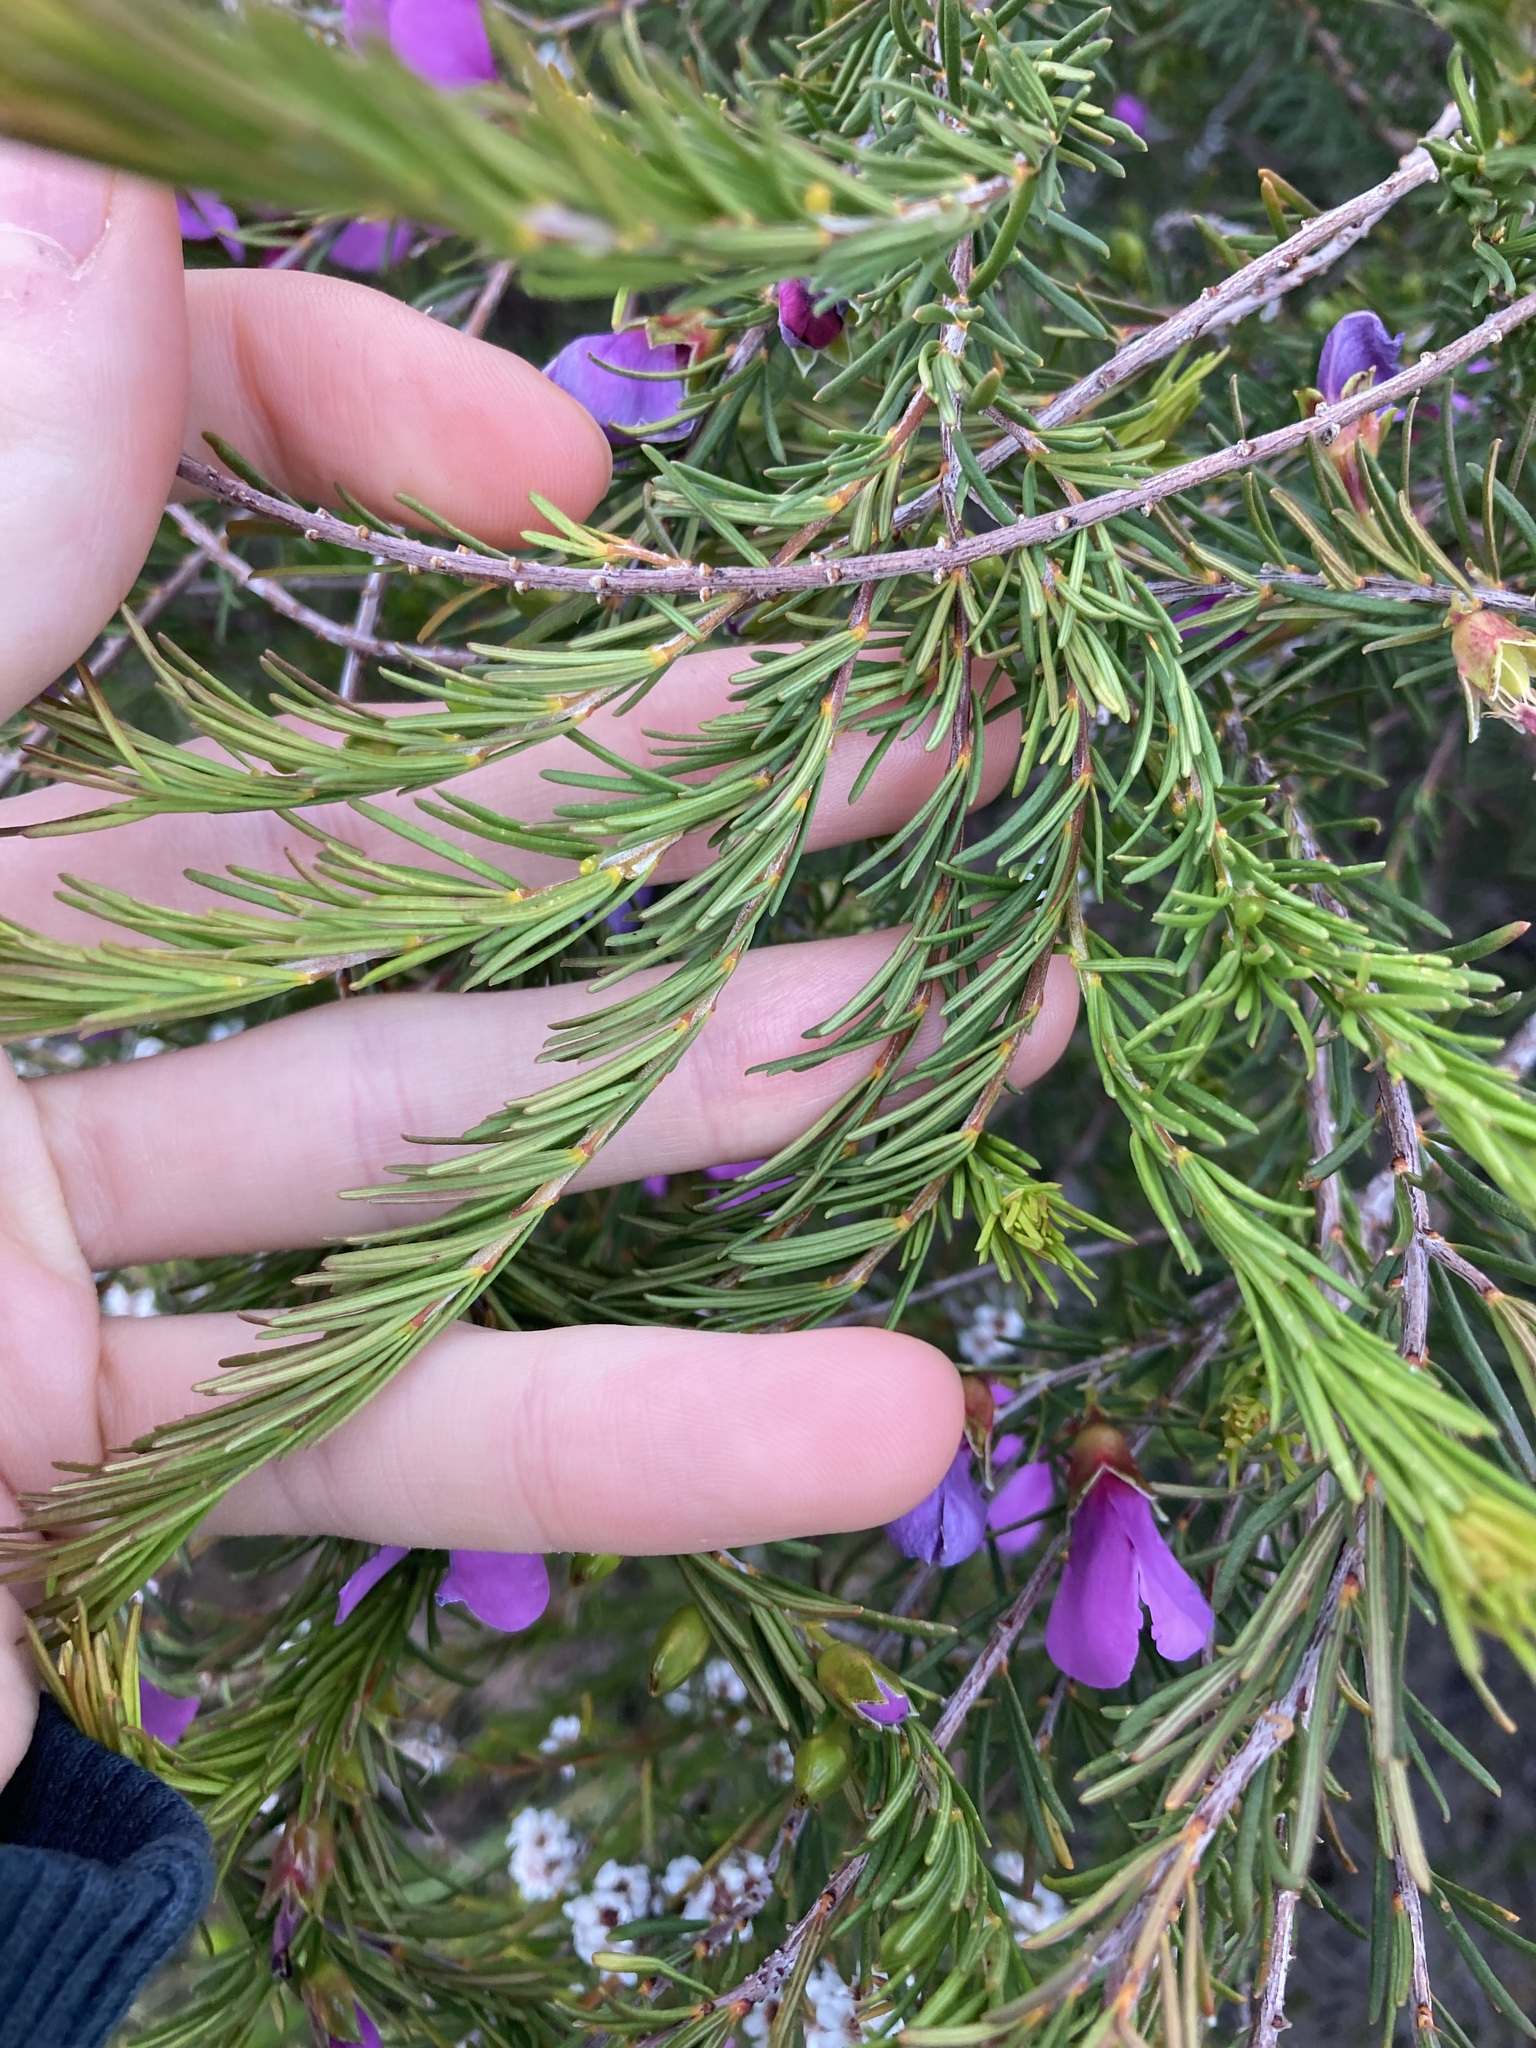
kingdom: Plantae
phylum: Tracheophyta
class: Magnoliopsida
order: Fabales
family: Fabaceae
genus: Gompholobium
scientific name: Gompholobium scabrum
